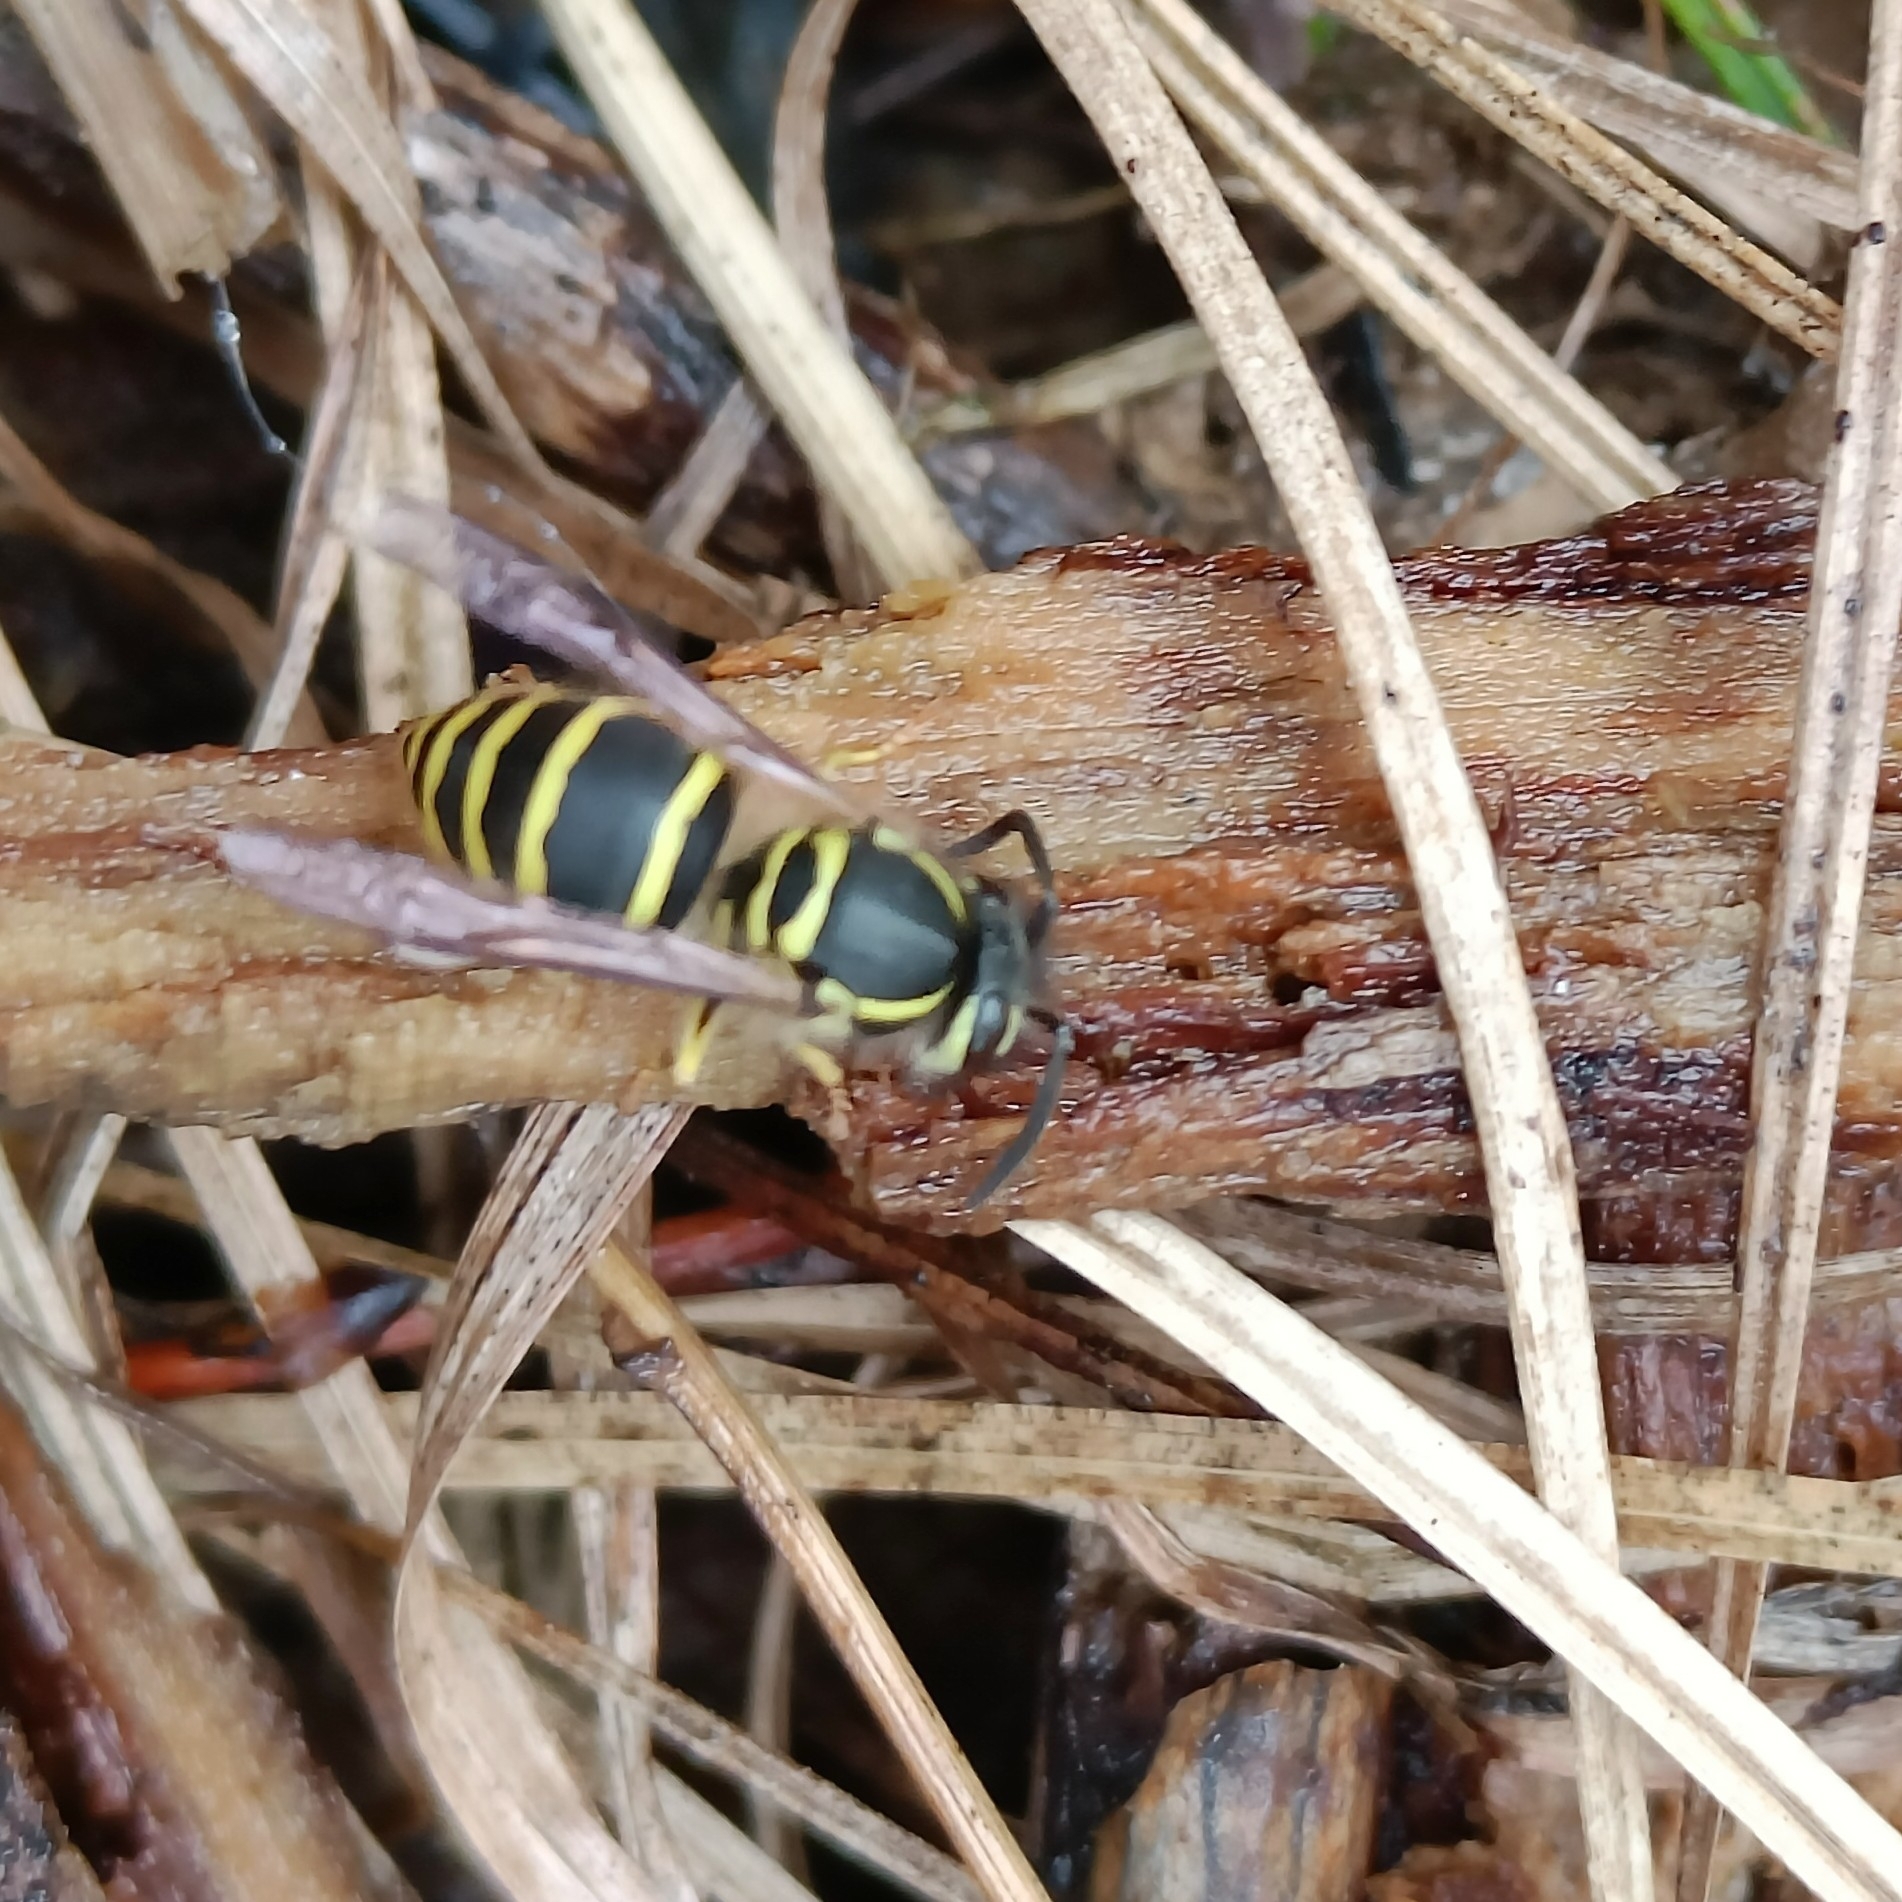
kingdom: Animalia
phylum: Arthropoda
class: Insecta
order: Hymenoptera
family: Vespidae
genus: Vespula
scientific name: Vespula flaviceps
